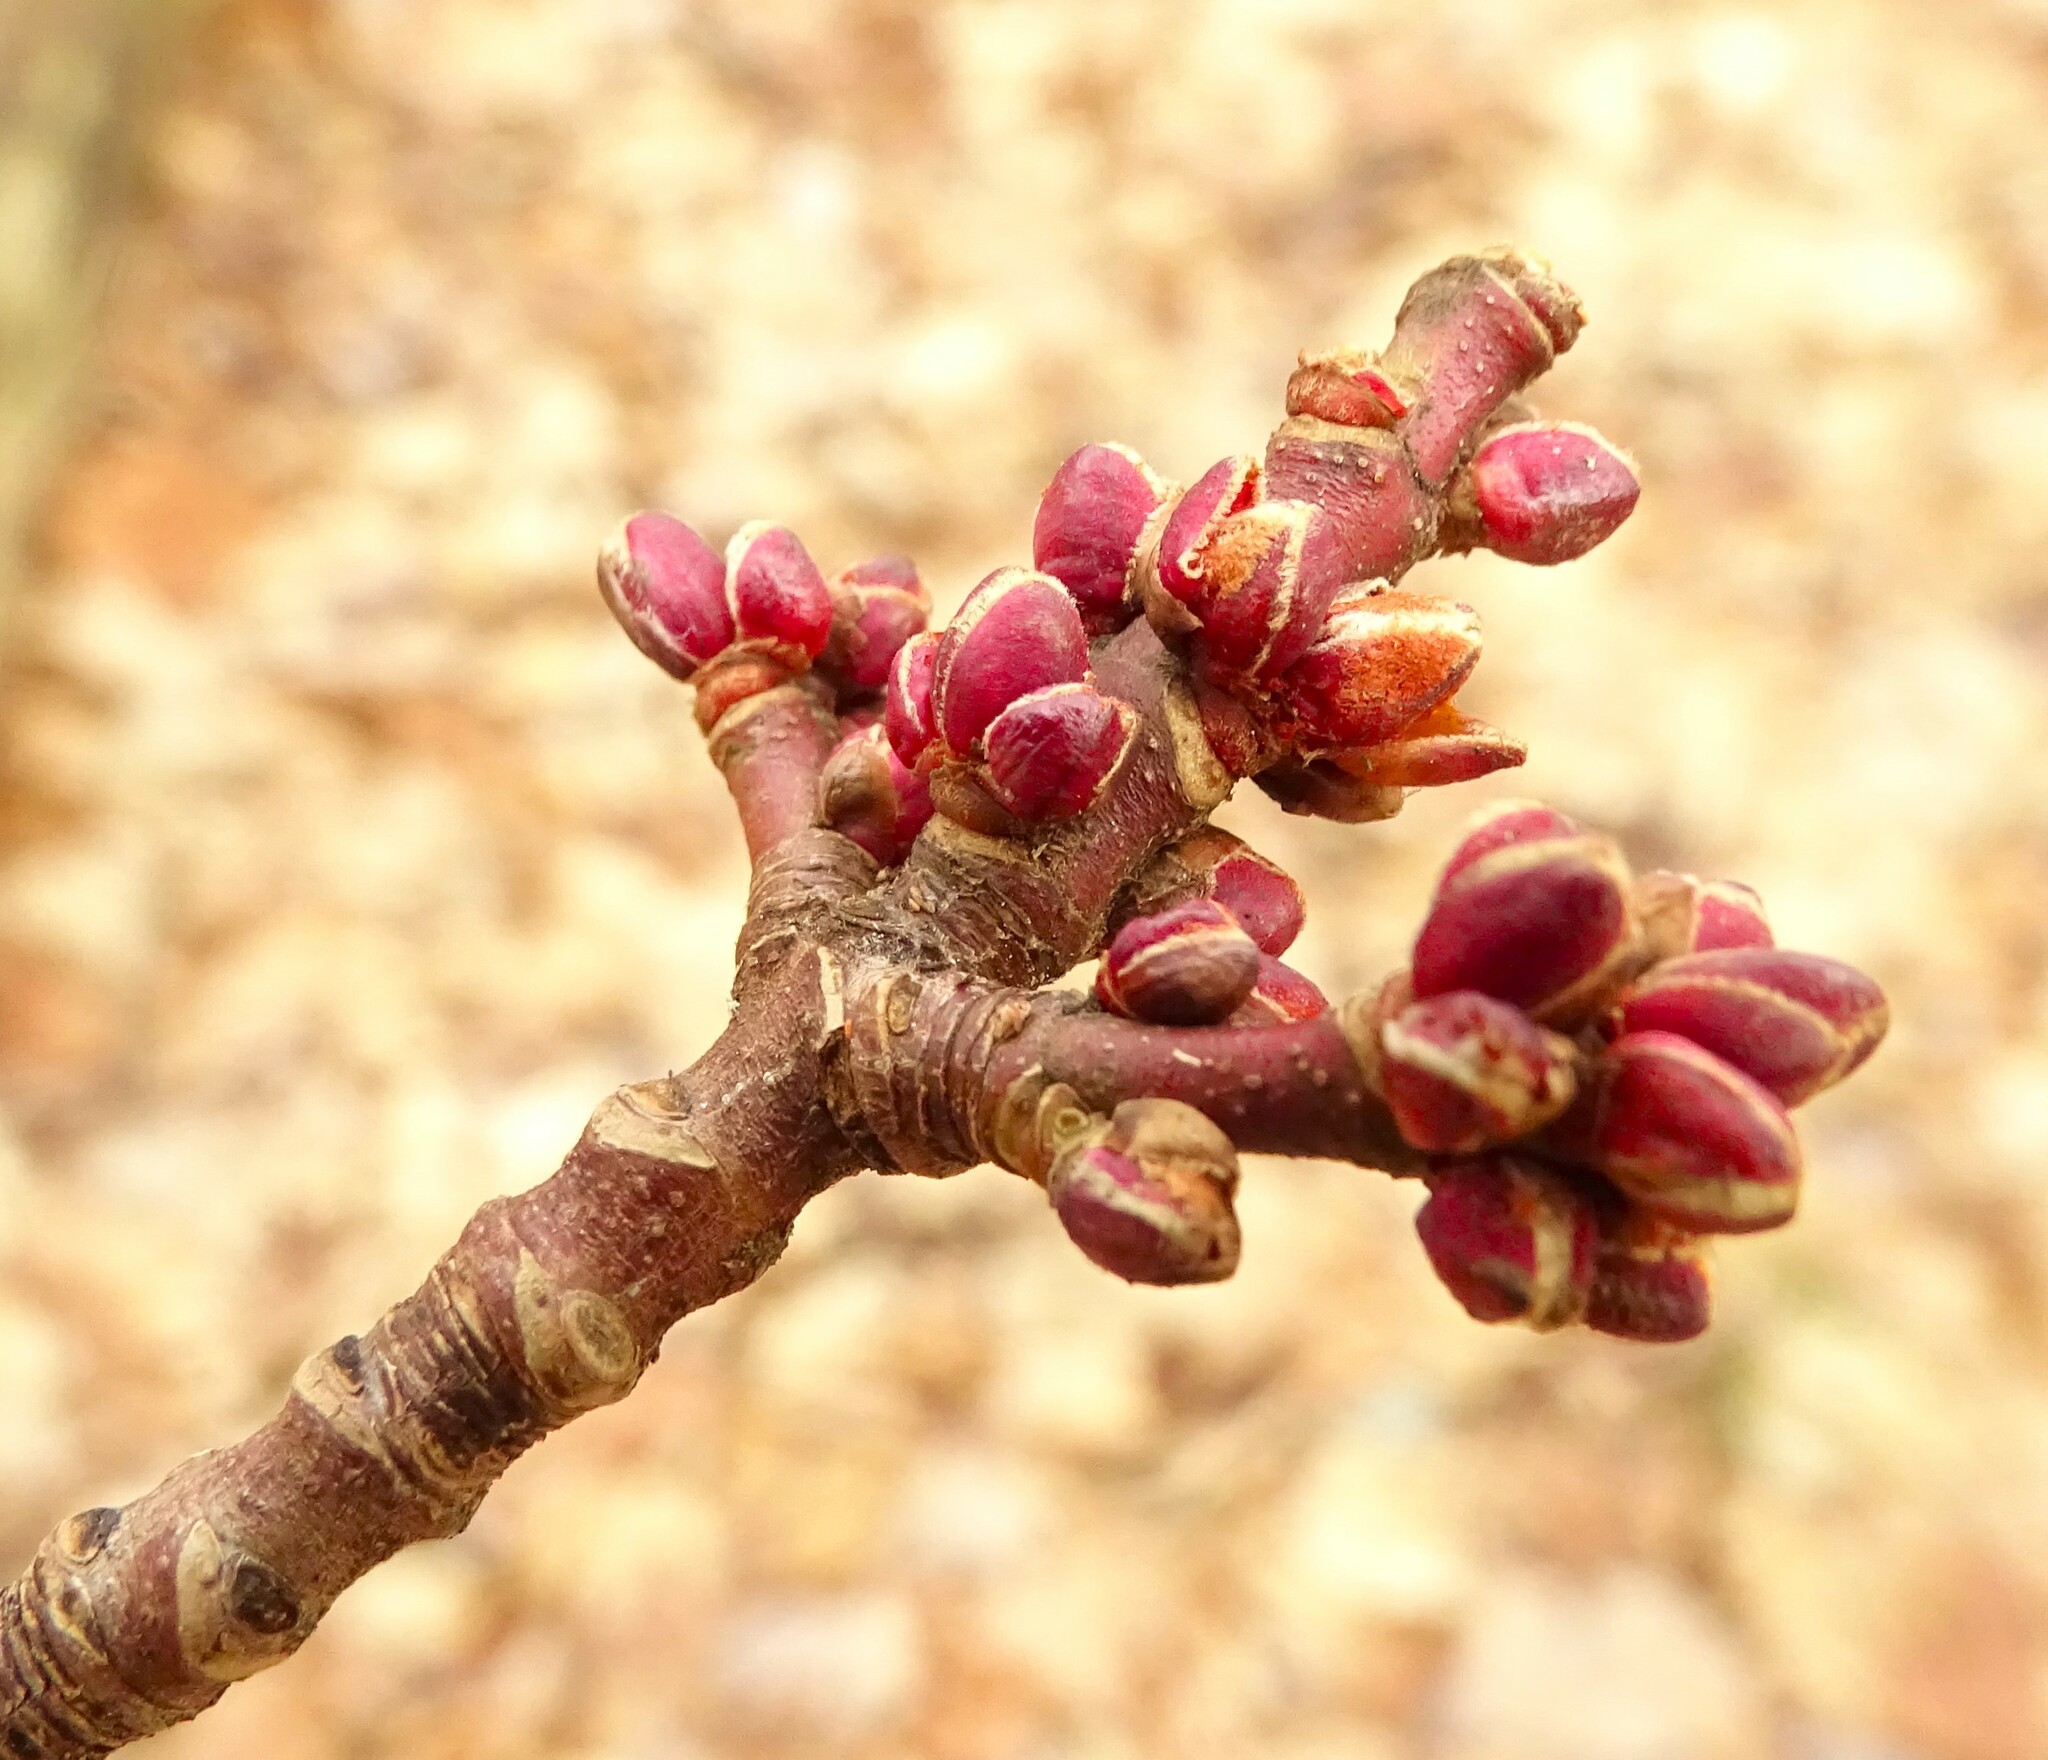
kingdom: Plantae
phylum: Tracheophyta
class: Magnoliopsida
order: Sapindales
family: Sapindaceae
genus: Acer
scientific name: Acer rubrum
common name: Red maple
